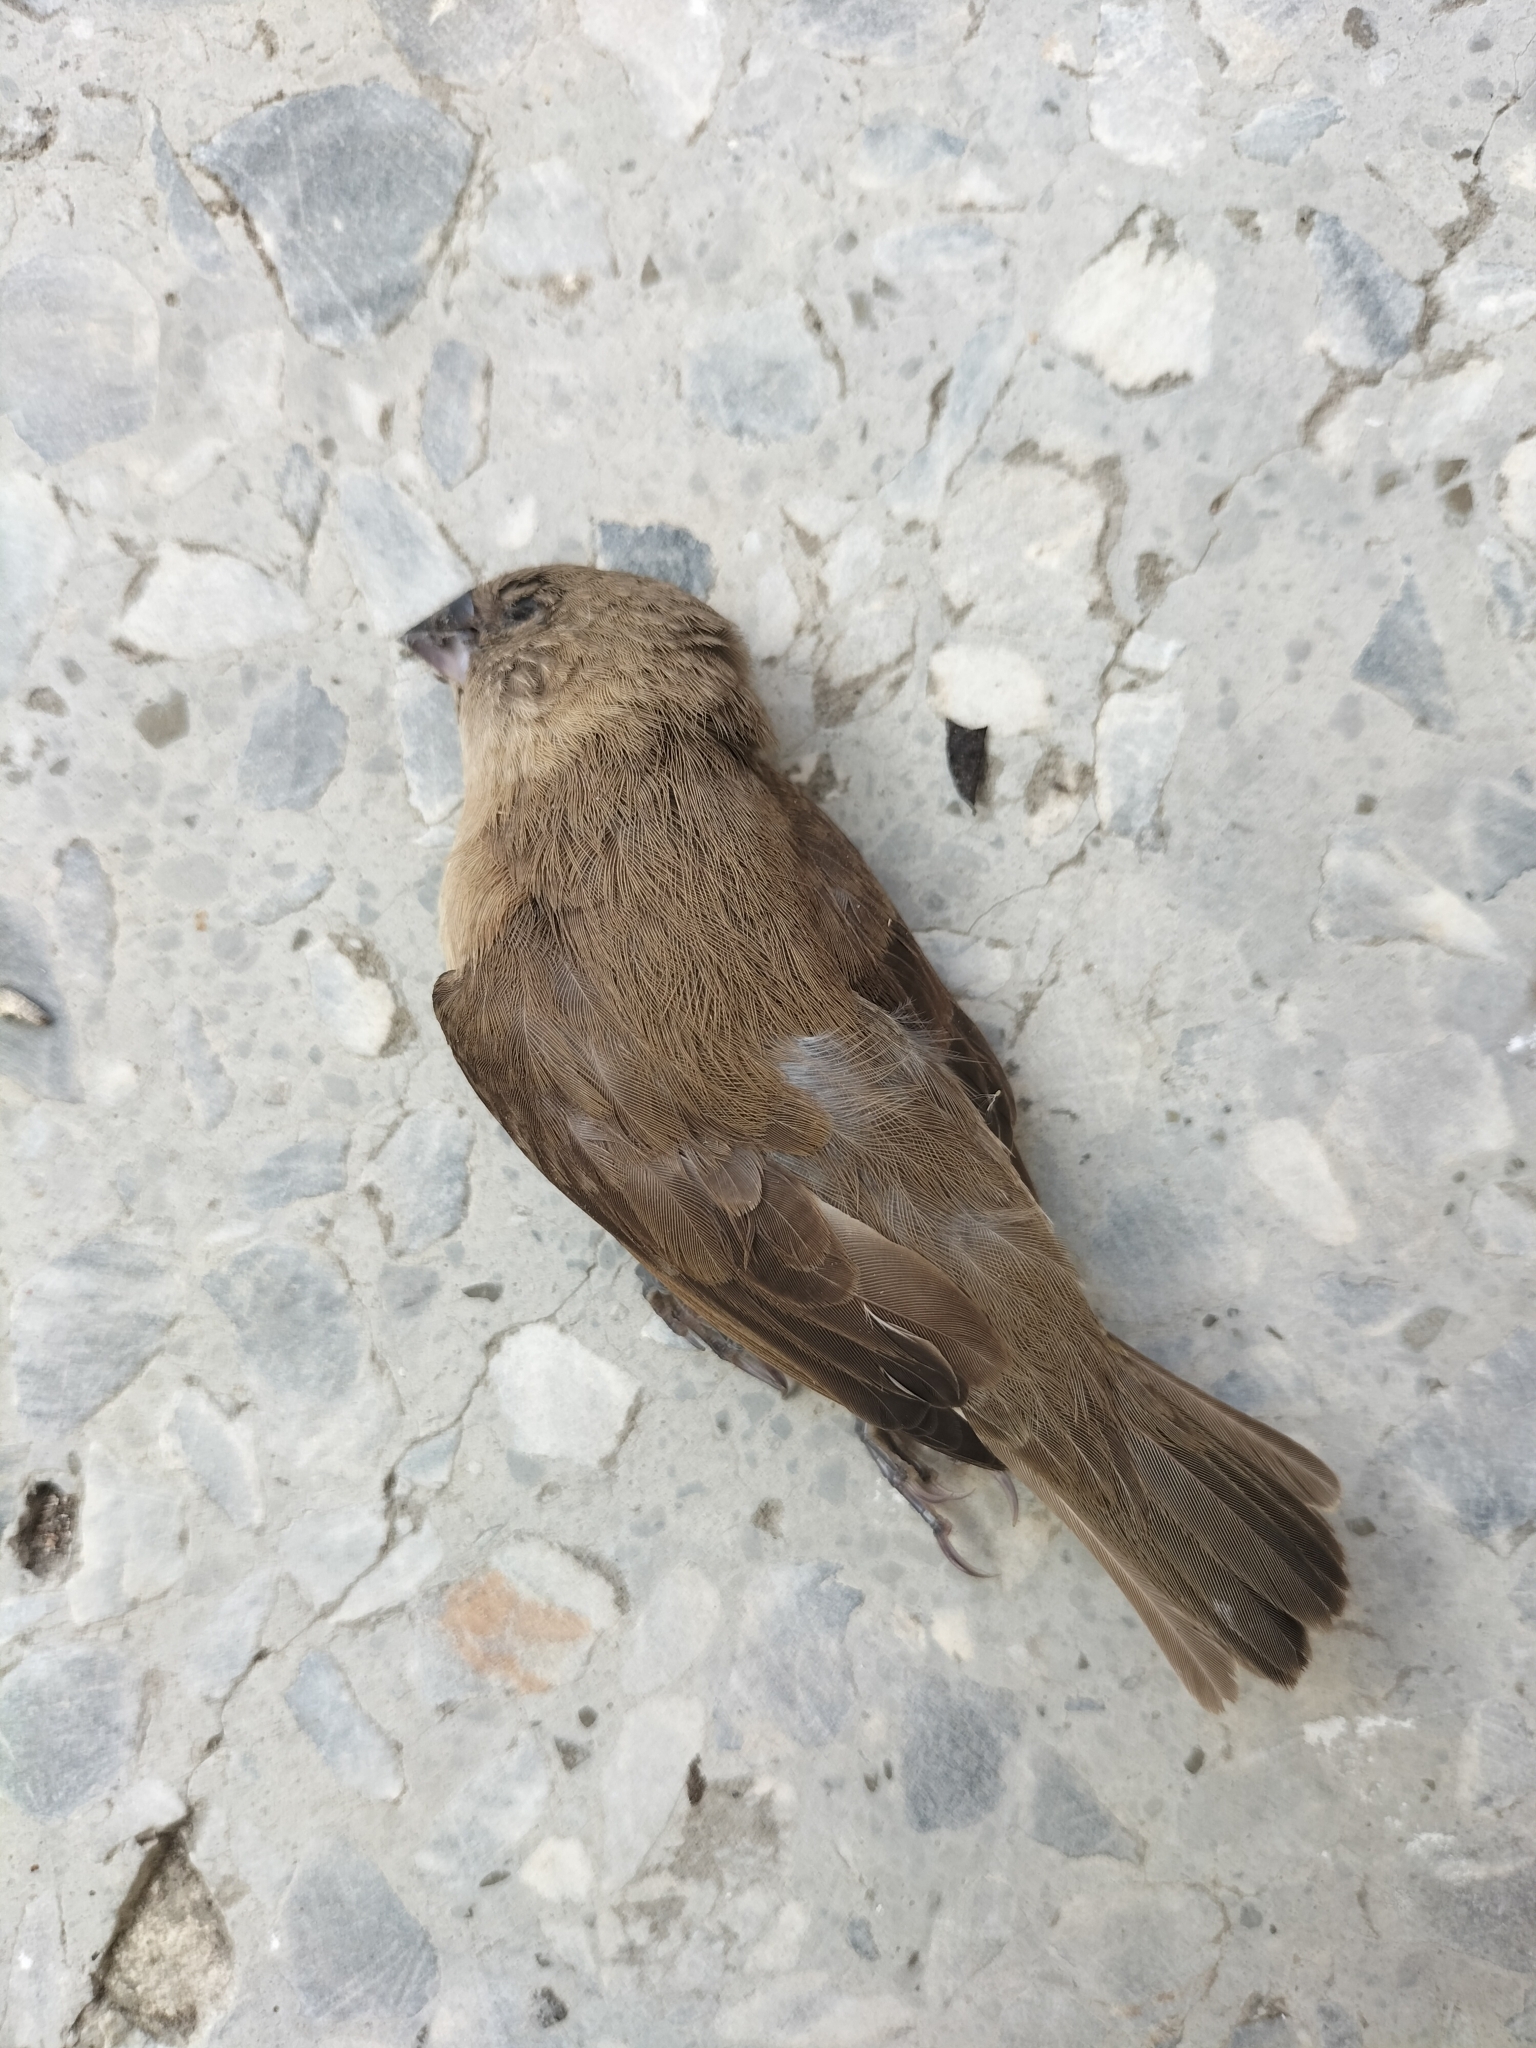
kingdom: Animalia
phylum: Chordata
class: Aves
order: Passeriformes
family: Estrildidae
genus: Lonchura
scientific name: Lonchura punctulata
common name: Scaly-breasted munia
